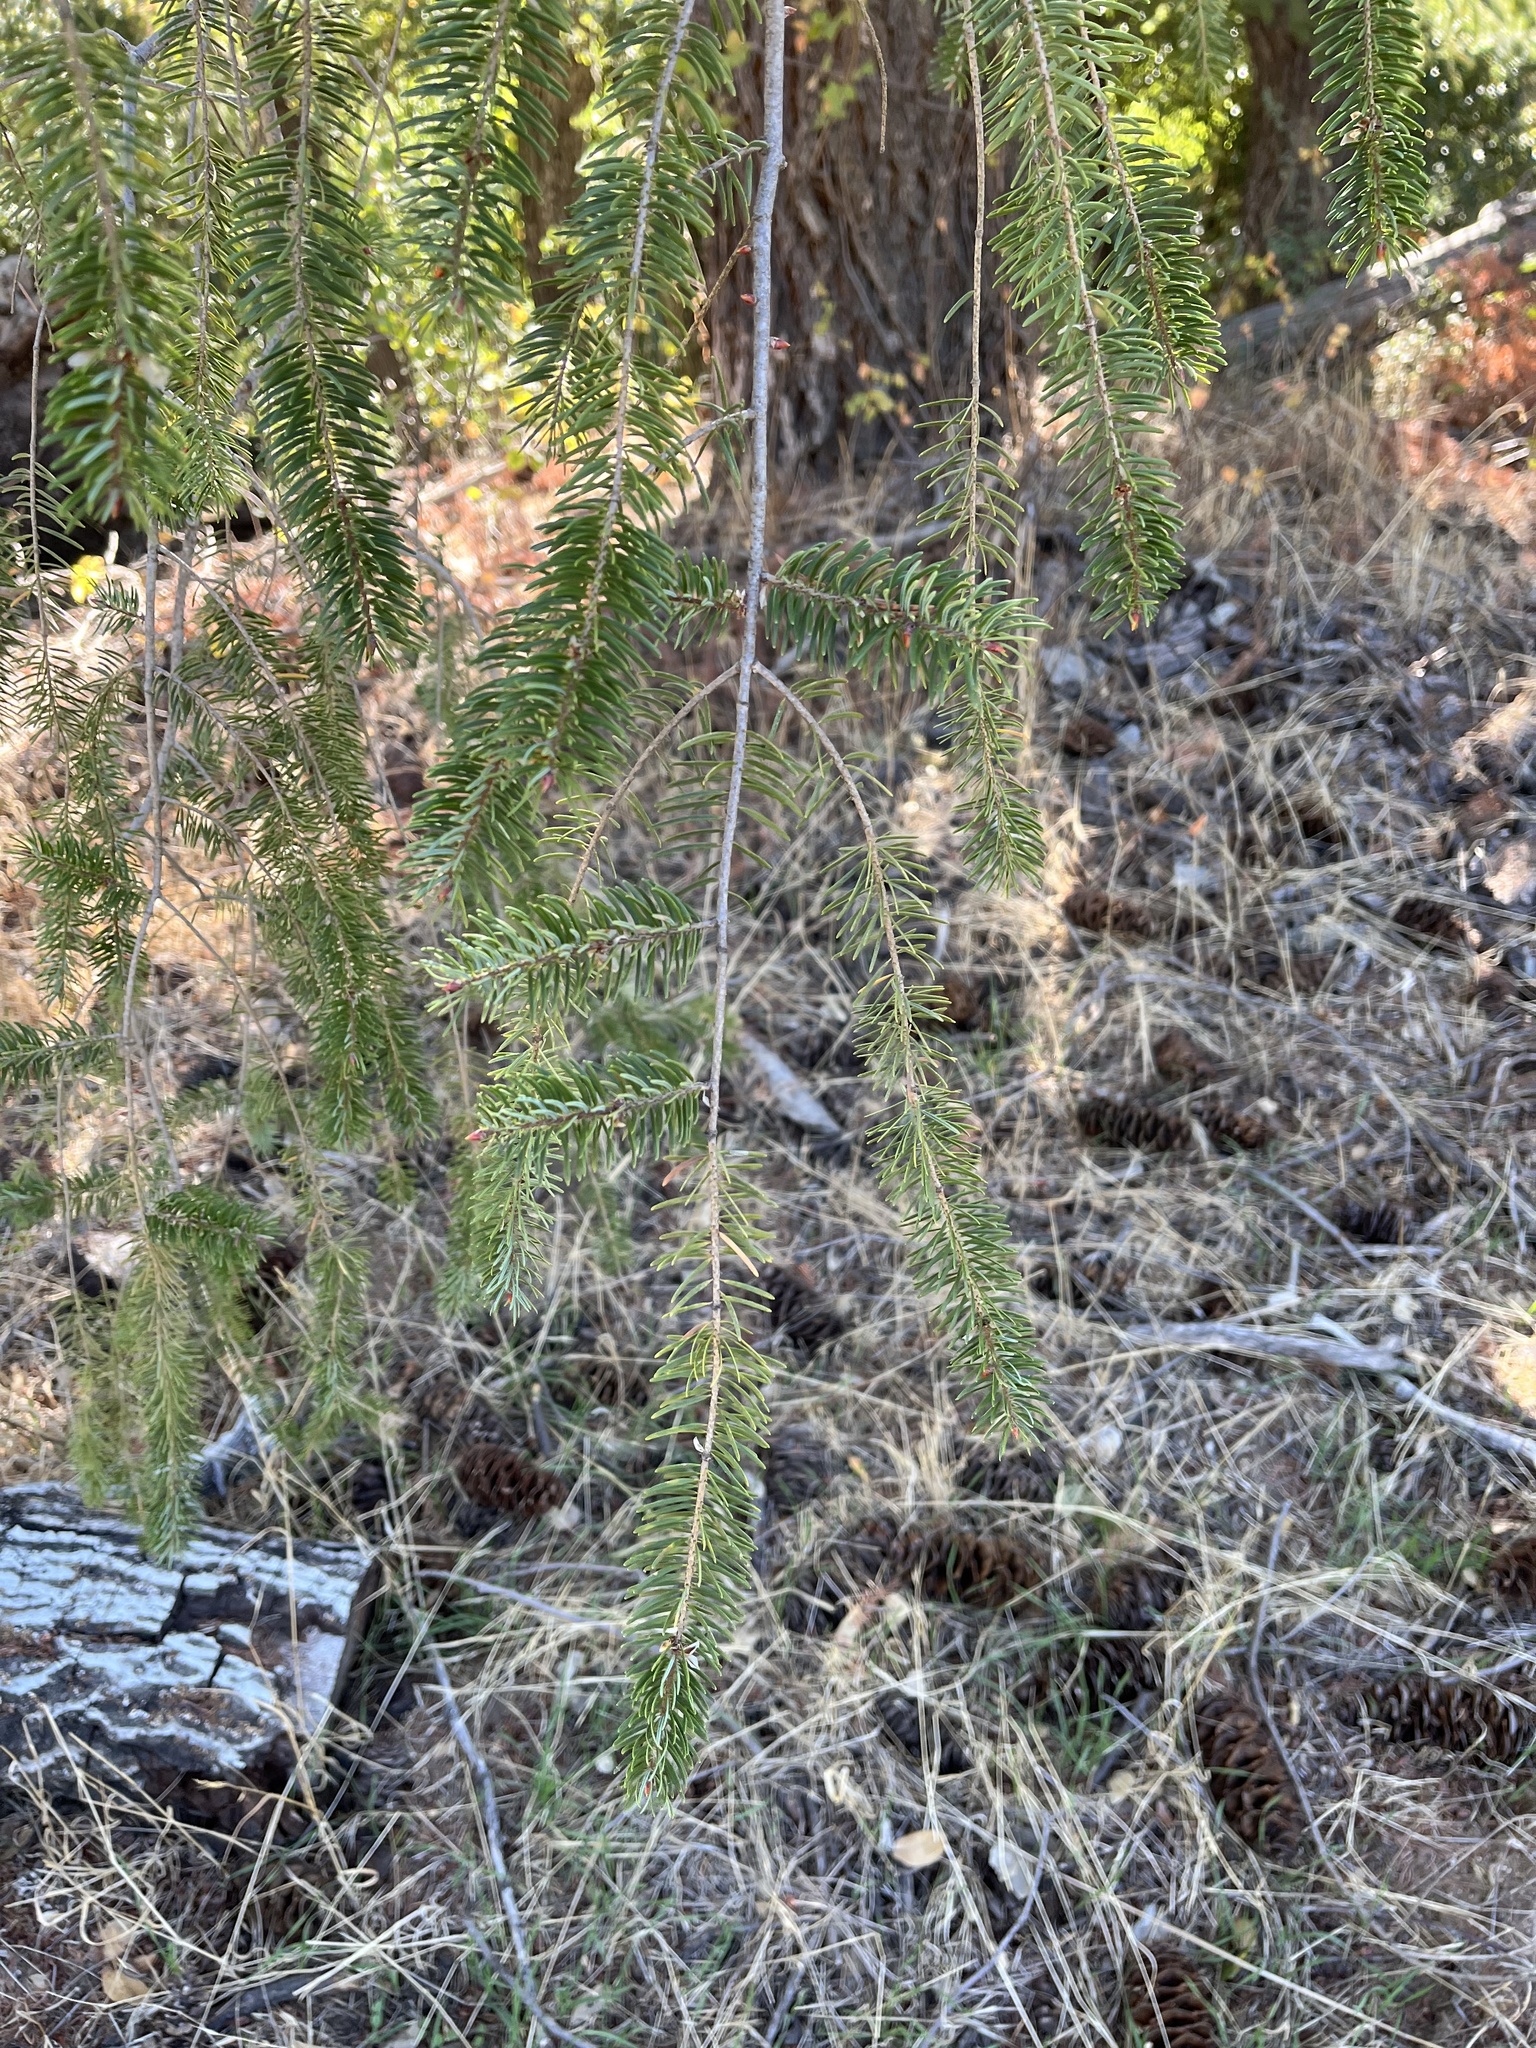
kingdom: Plantae
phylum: Tracheophyta
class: Pinopsida
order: Pinales
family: Pinaceae
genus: Pseudotsuga
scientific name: Pseudotsuga macrocarpa
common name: Big-cone douglas-fir
